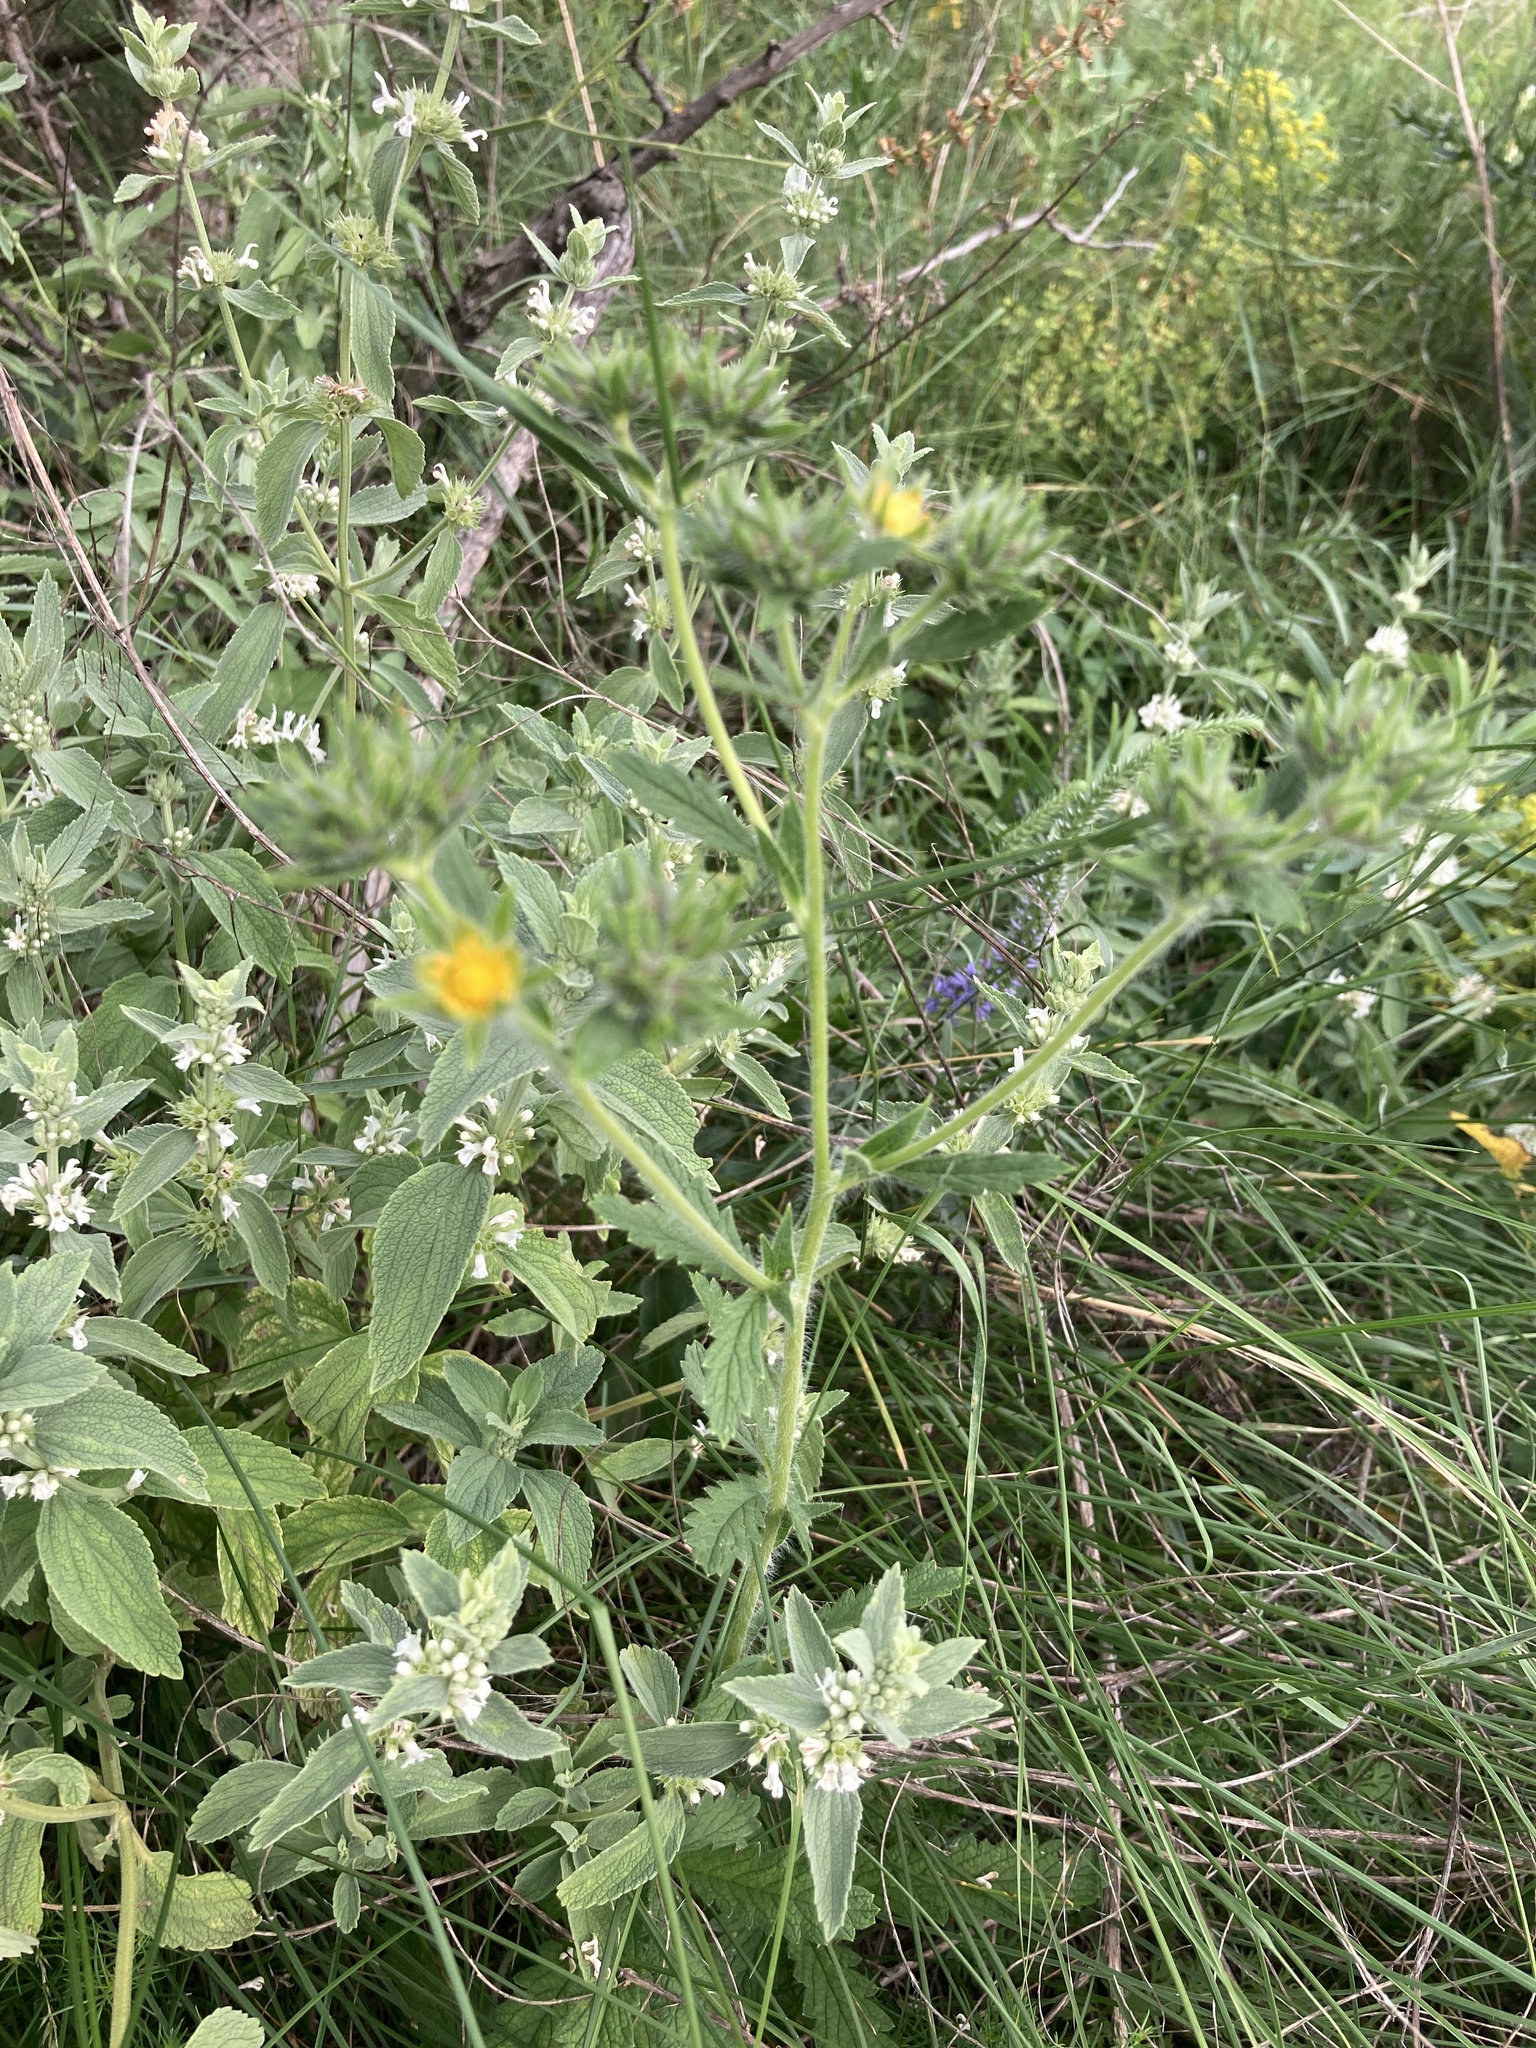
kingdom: Plantae
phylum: Tracheophyta
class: Magnoliopsida
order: Rosales
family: Rosaceae
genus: Potentilla
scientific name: Potentilla recta
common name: Sulphur cinquefoil
